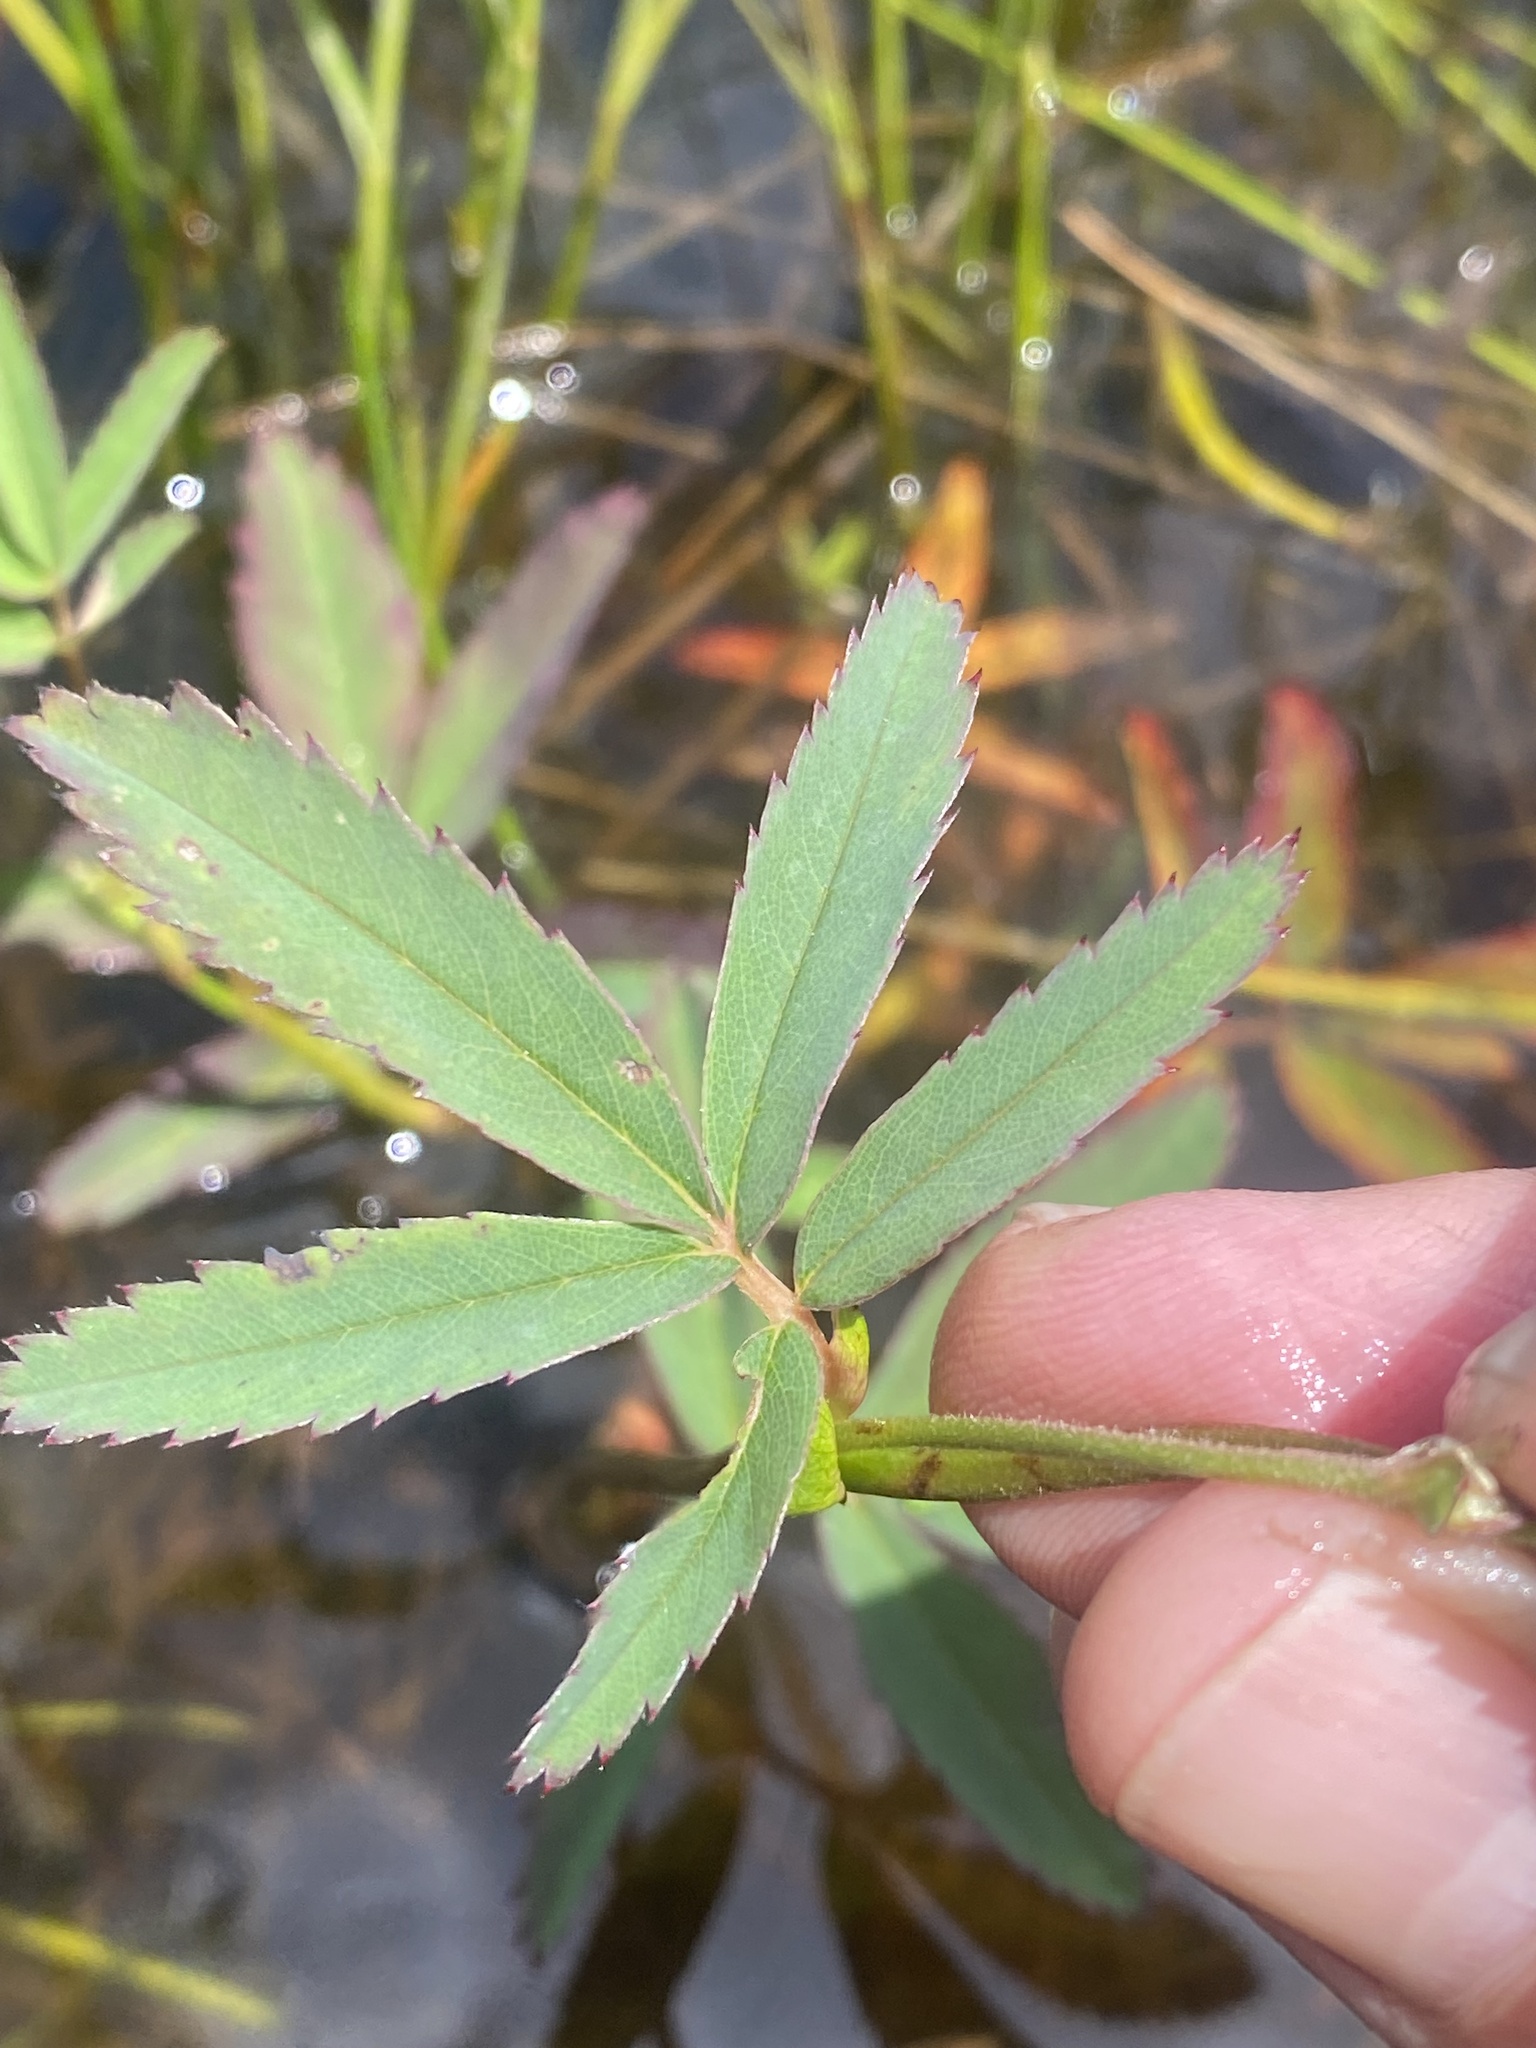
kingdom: Plantae
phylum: Tracheophyta
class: Magnoliopsida
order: Rosales
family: Rosaceae
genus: Comarum
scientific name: Comarum palustre
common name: Marsh cinquefoil
